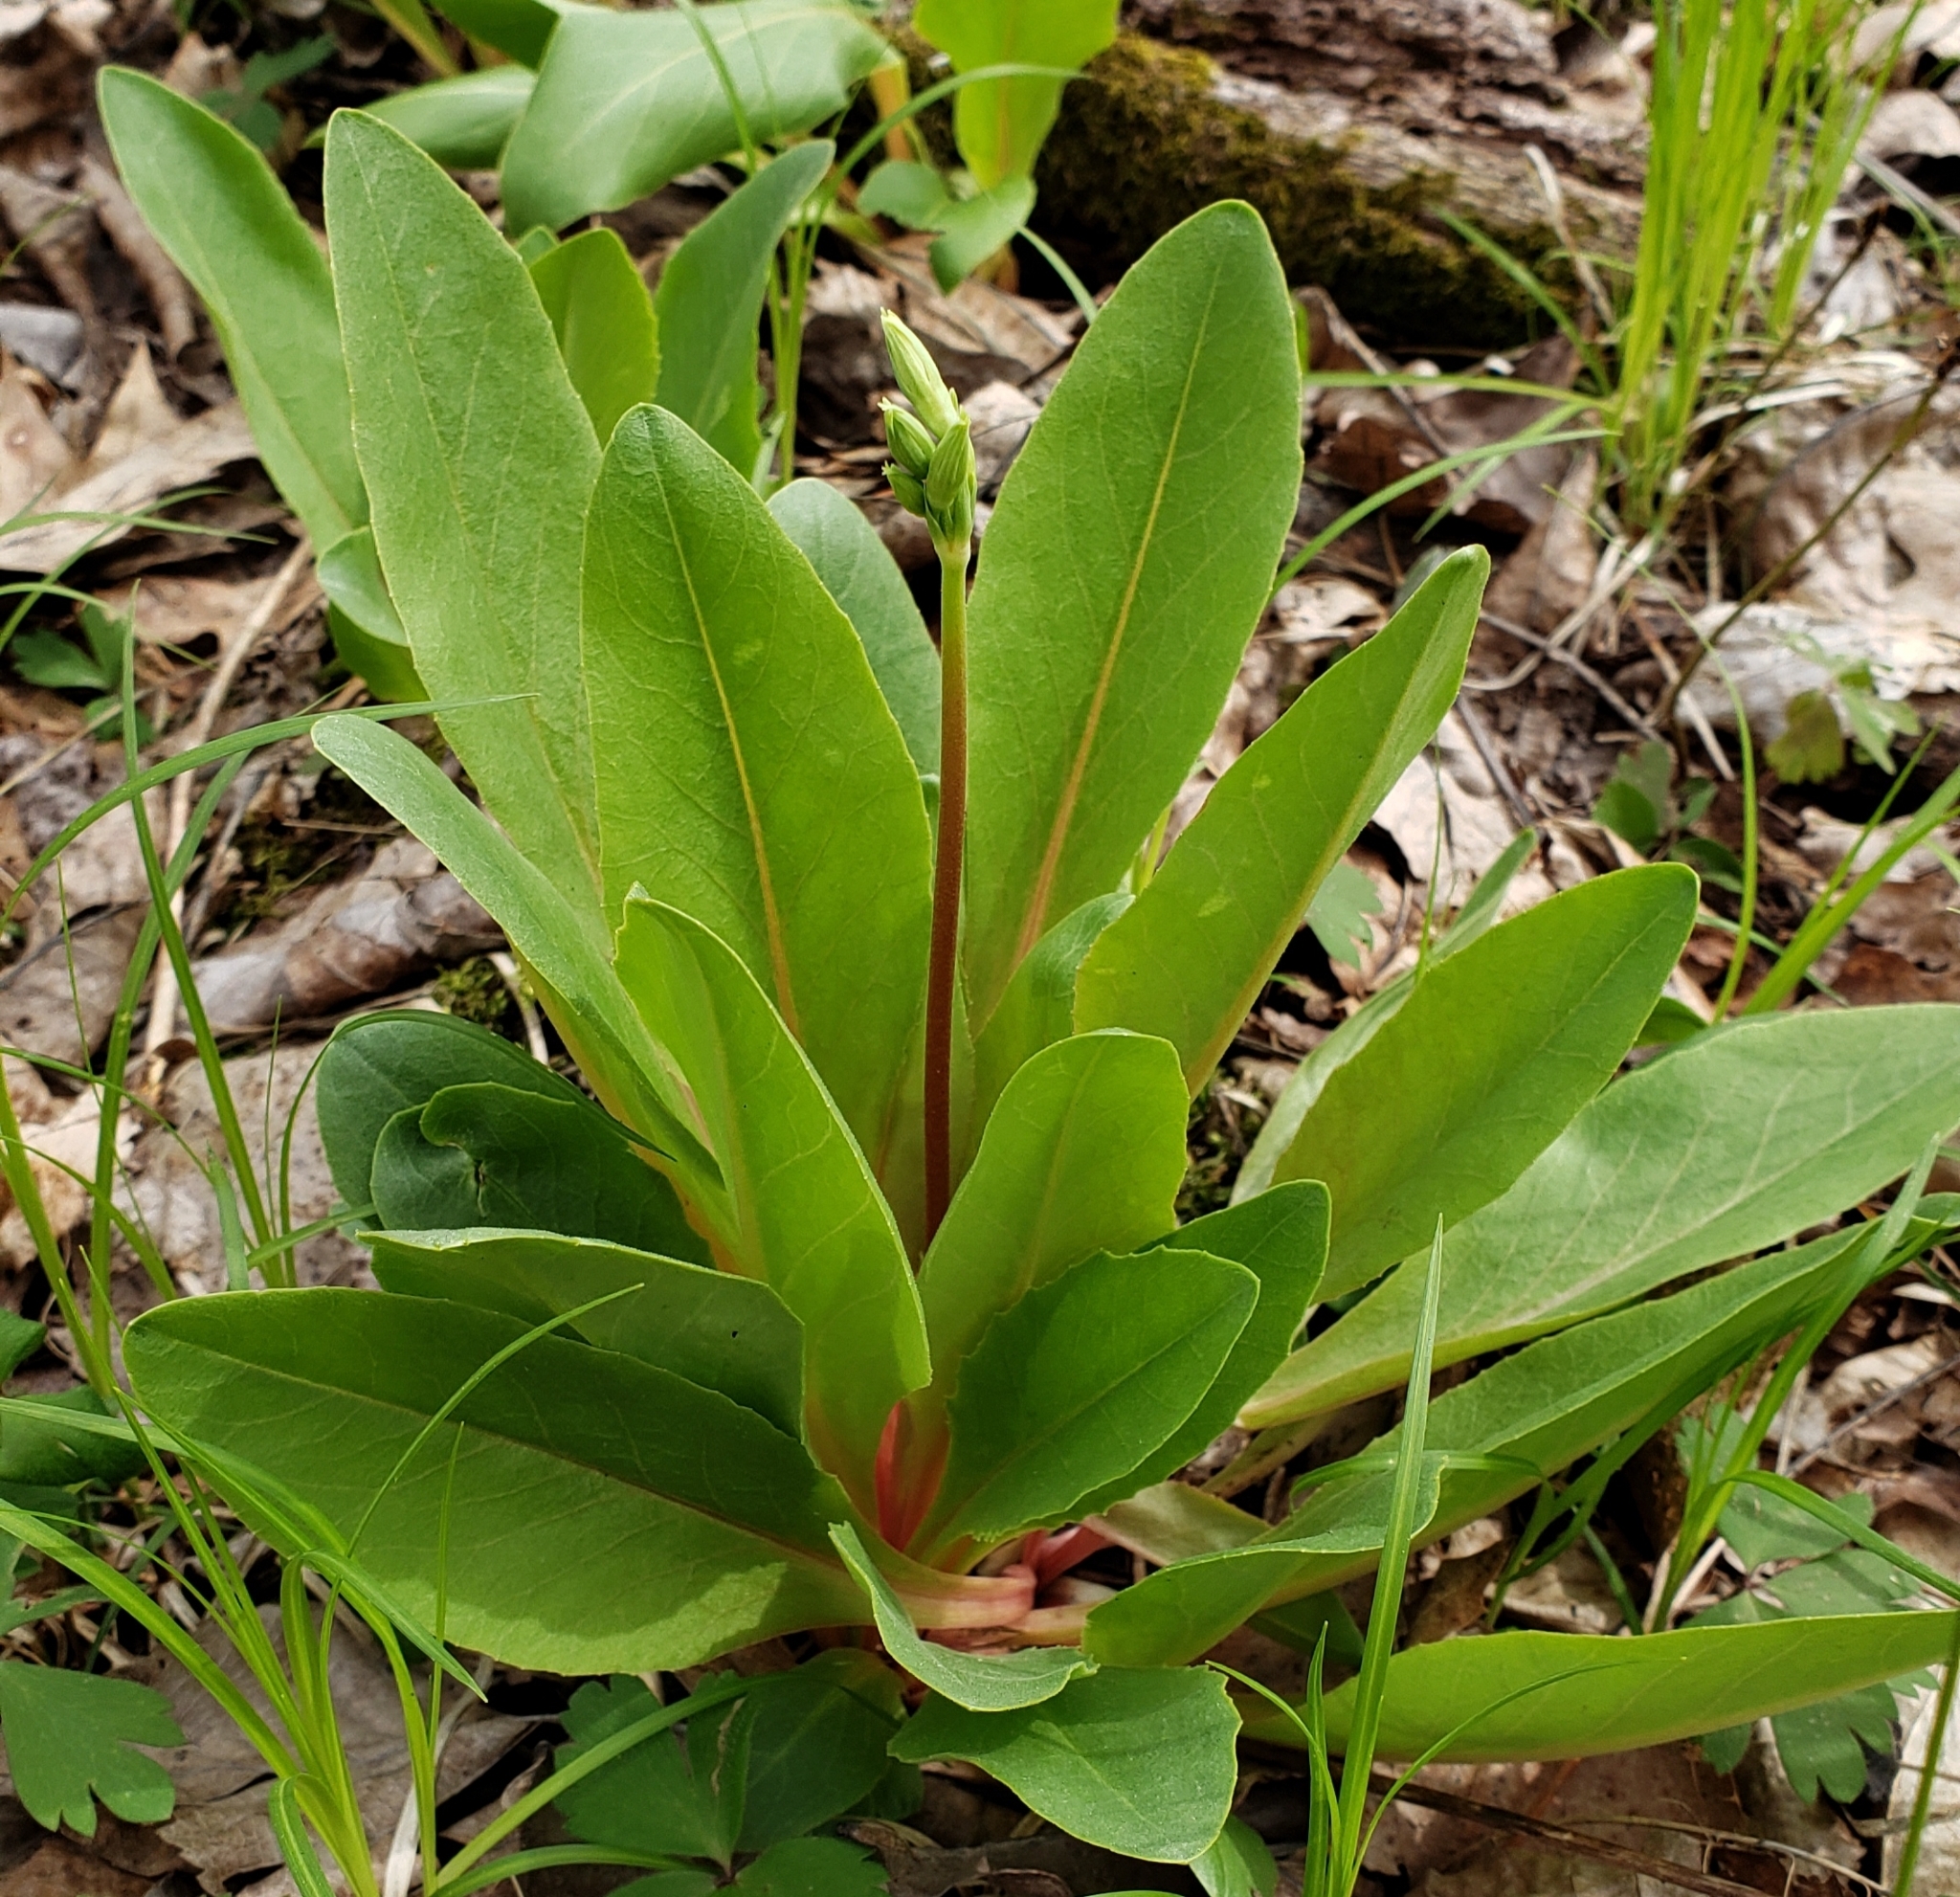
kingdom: Plantae
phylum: Tracheophyta
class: Magnoliopsida
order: Ericales
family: Primulaceae
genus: Dodecatheon
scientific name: Dodecatheon meadia
